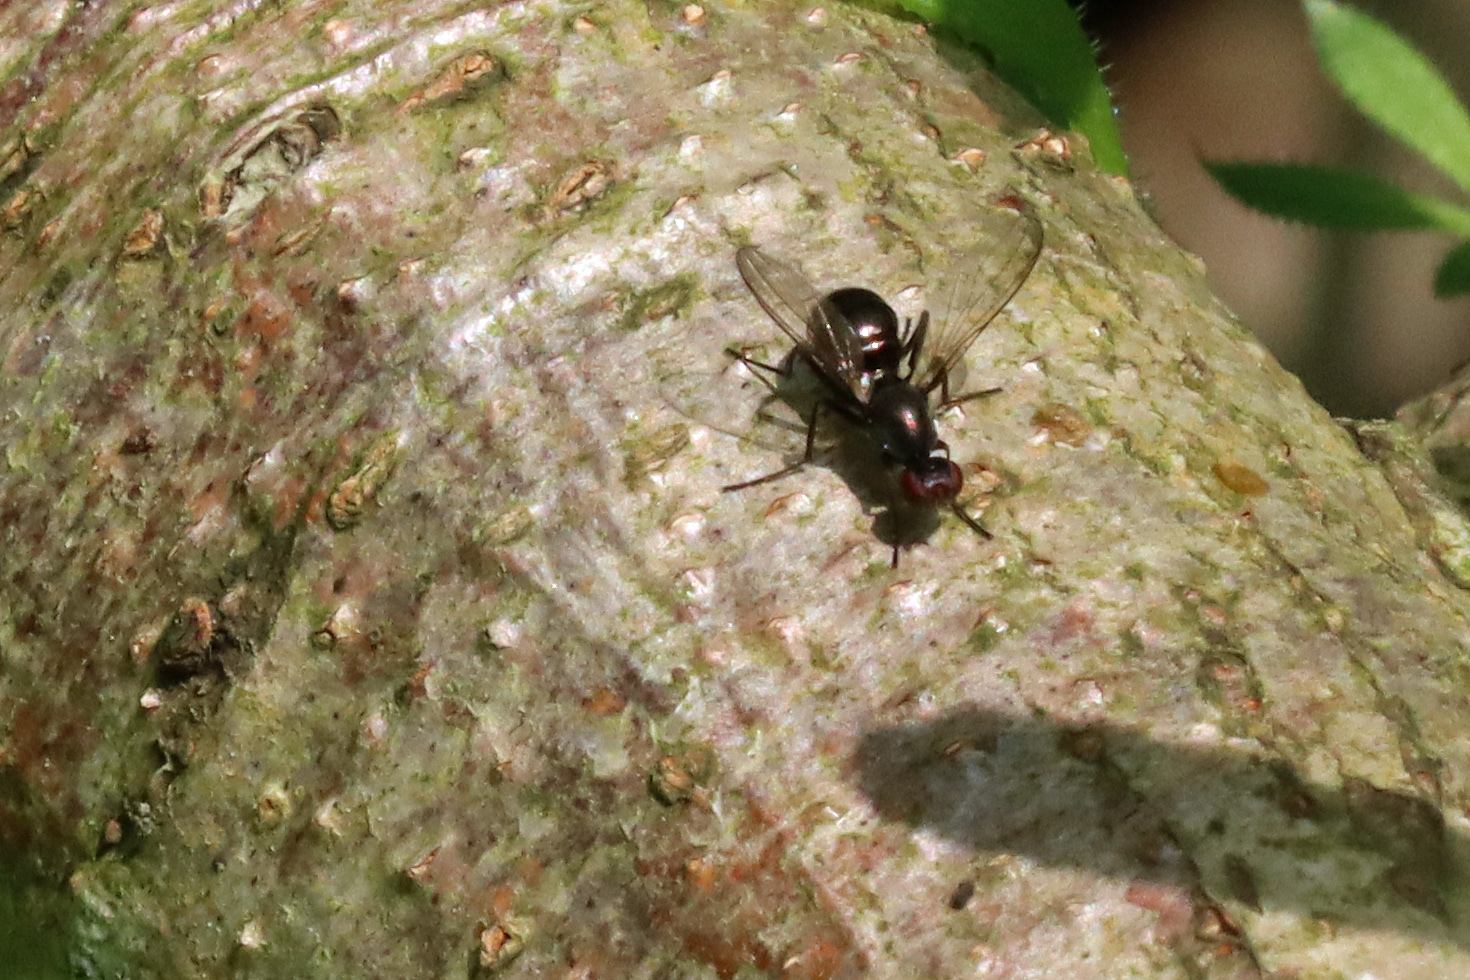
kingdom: Animalia
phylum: Arthropoda
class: Insecta
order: Diptera
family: Sepsidae
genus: Nemopoda
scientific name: Nemopoda nitidula
